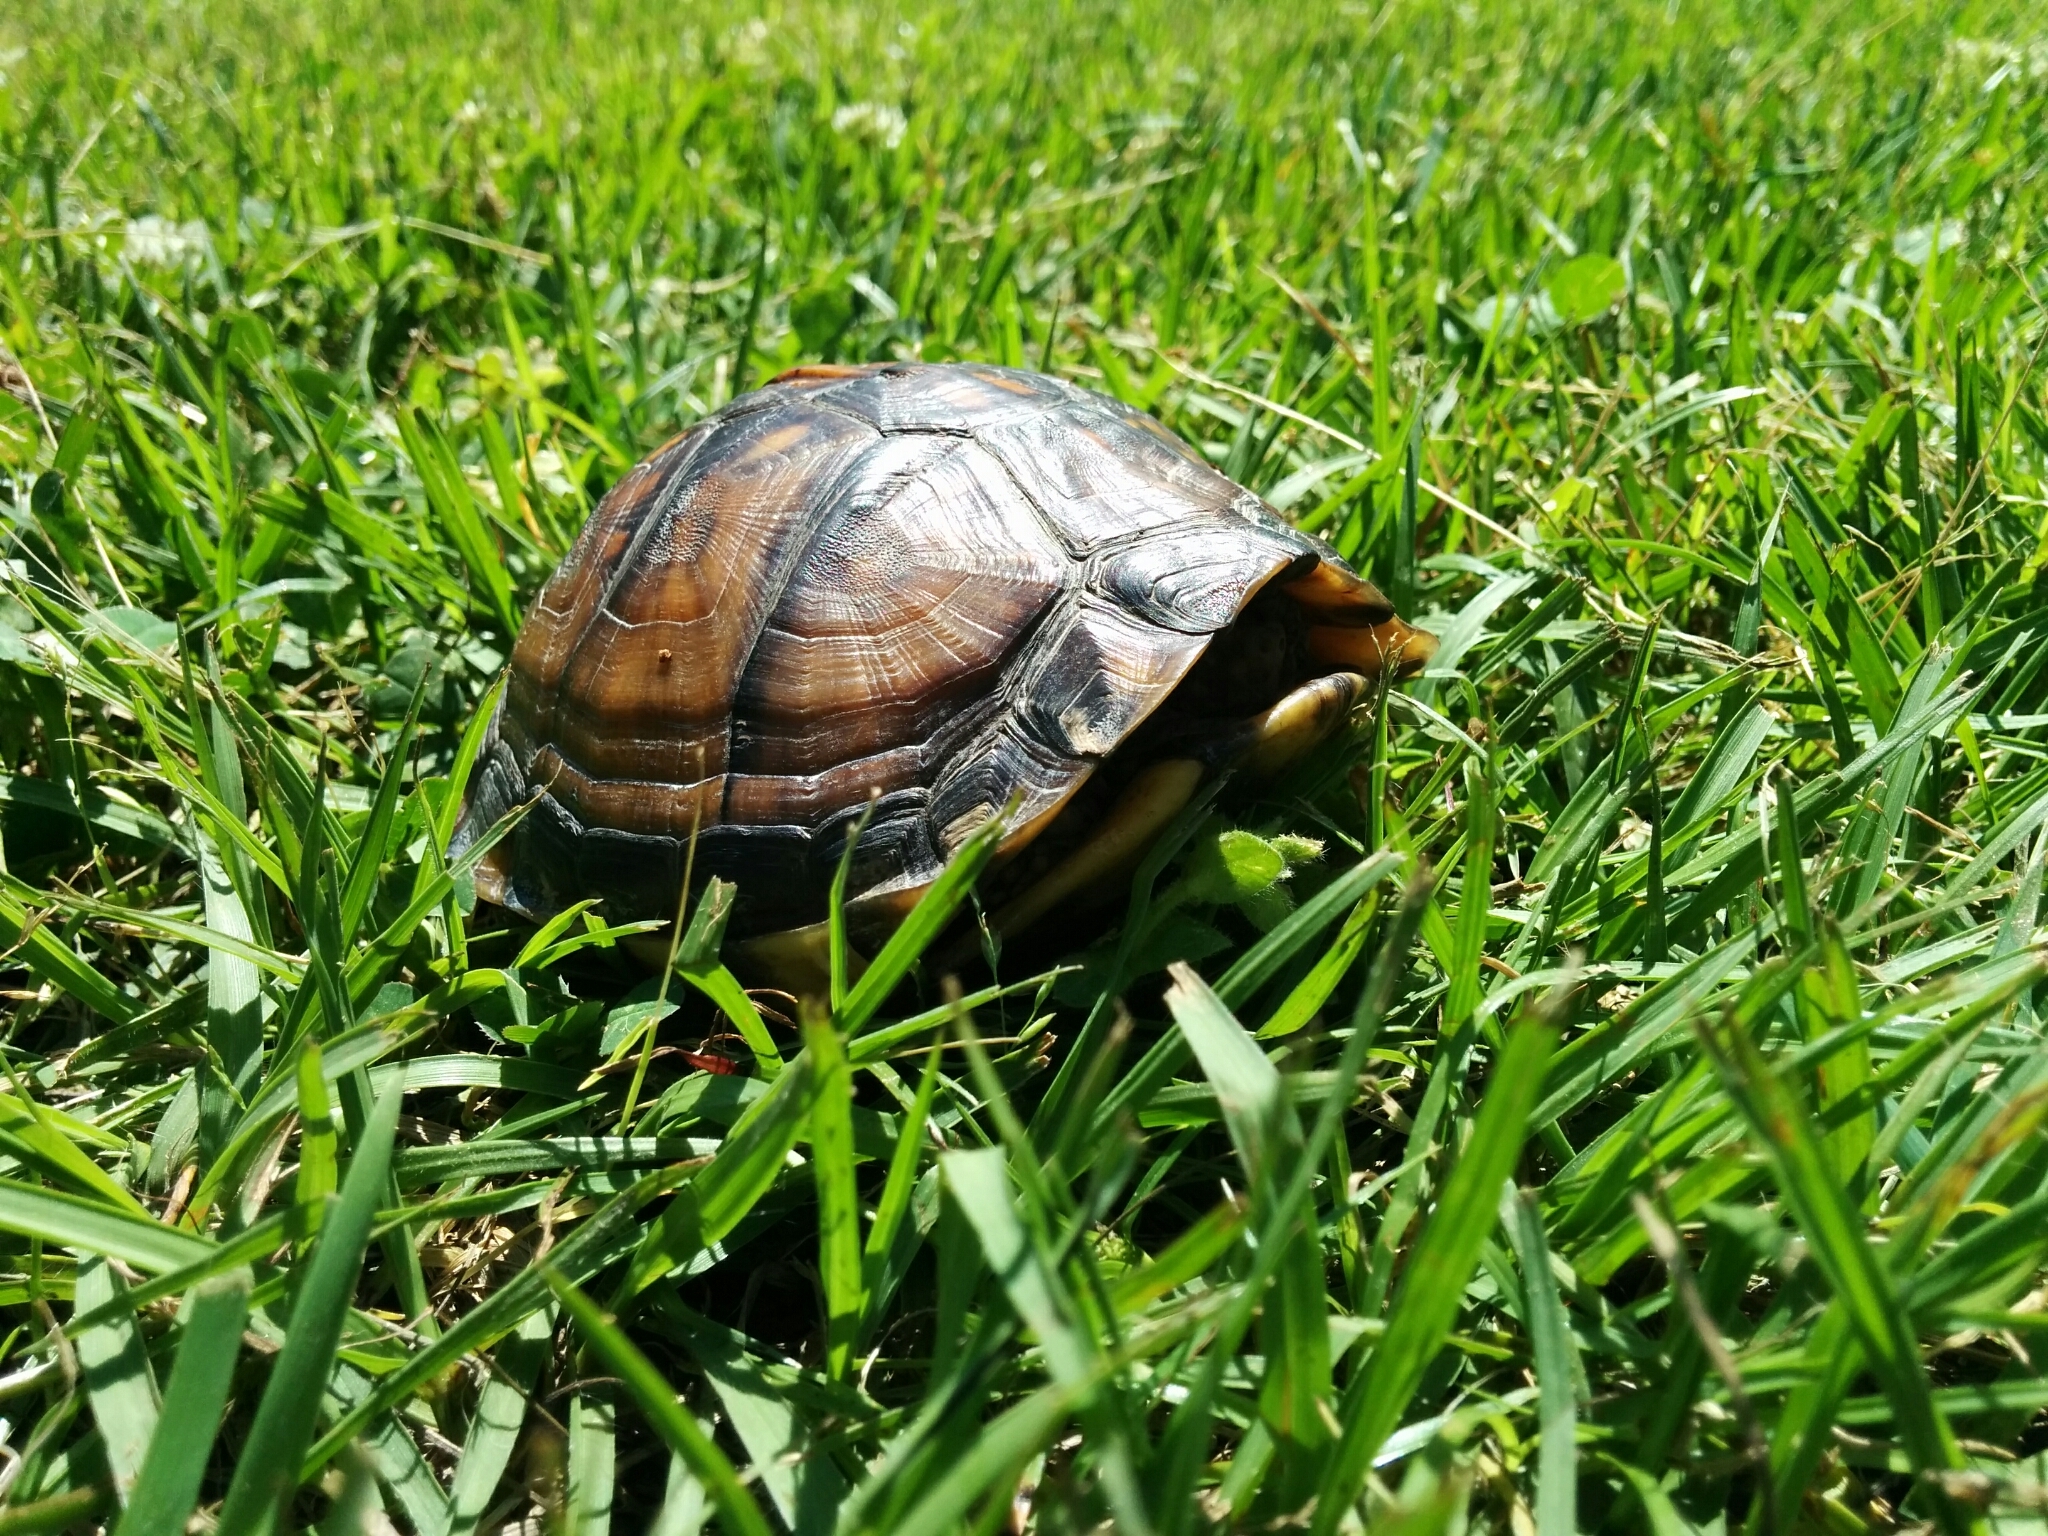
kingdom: Animalia
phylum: Chordata
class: Testudines
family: Emydidae
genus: Terrapene
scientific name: Terrapene carolina
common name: Common box turtle
